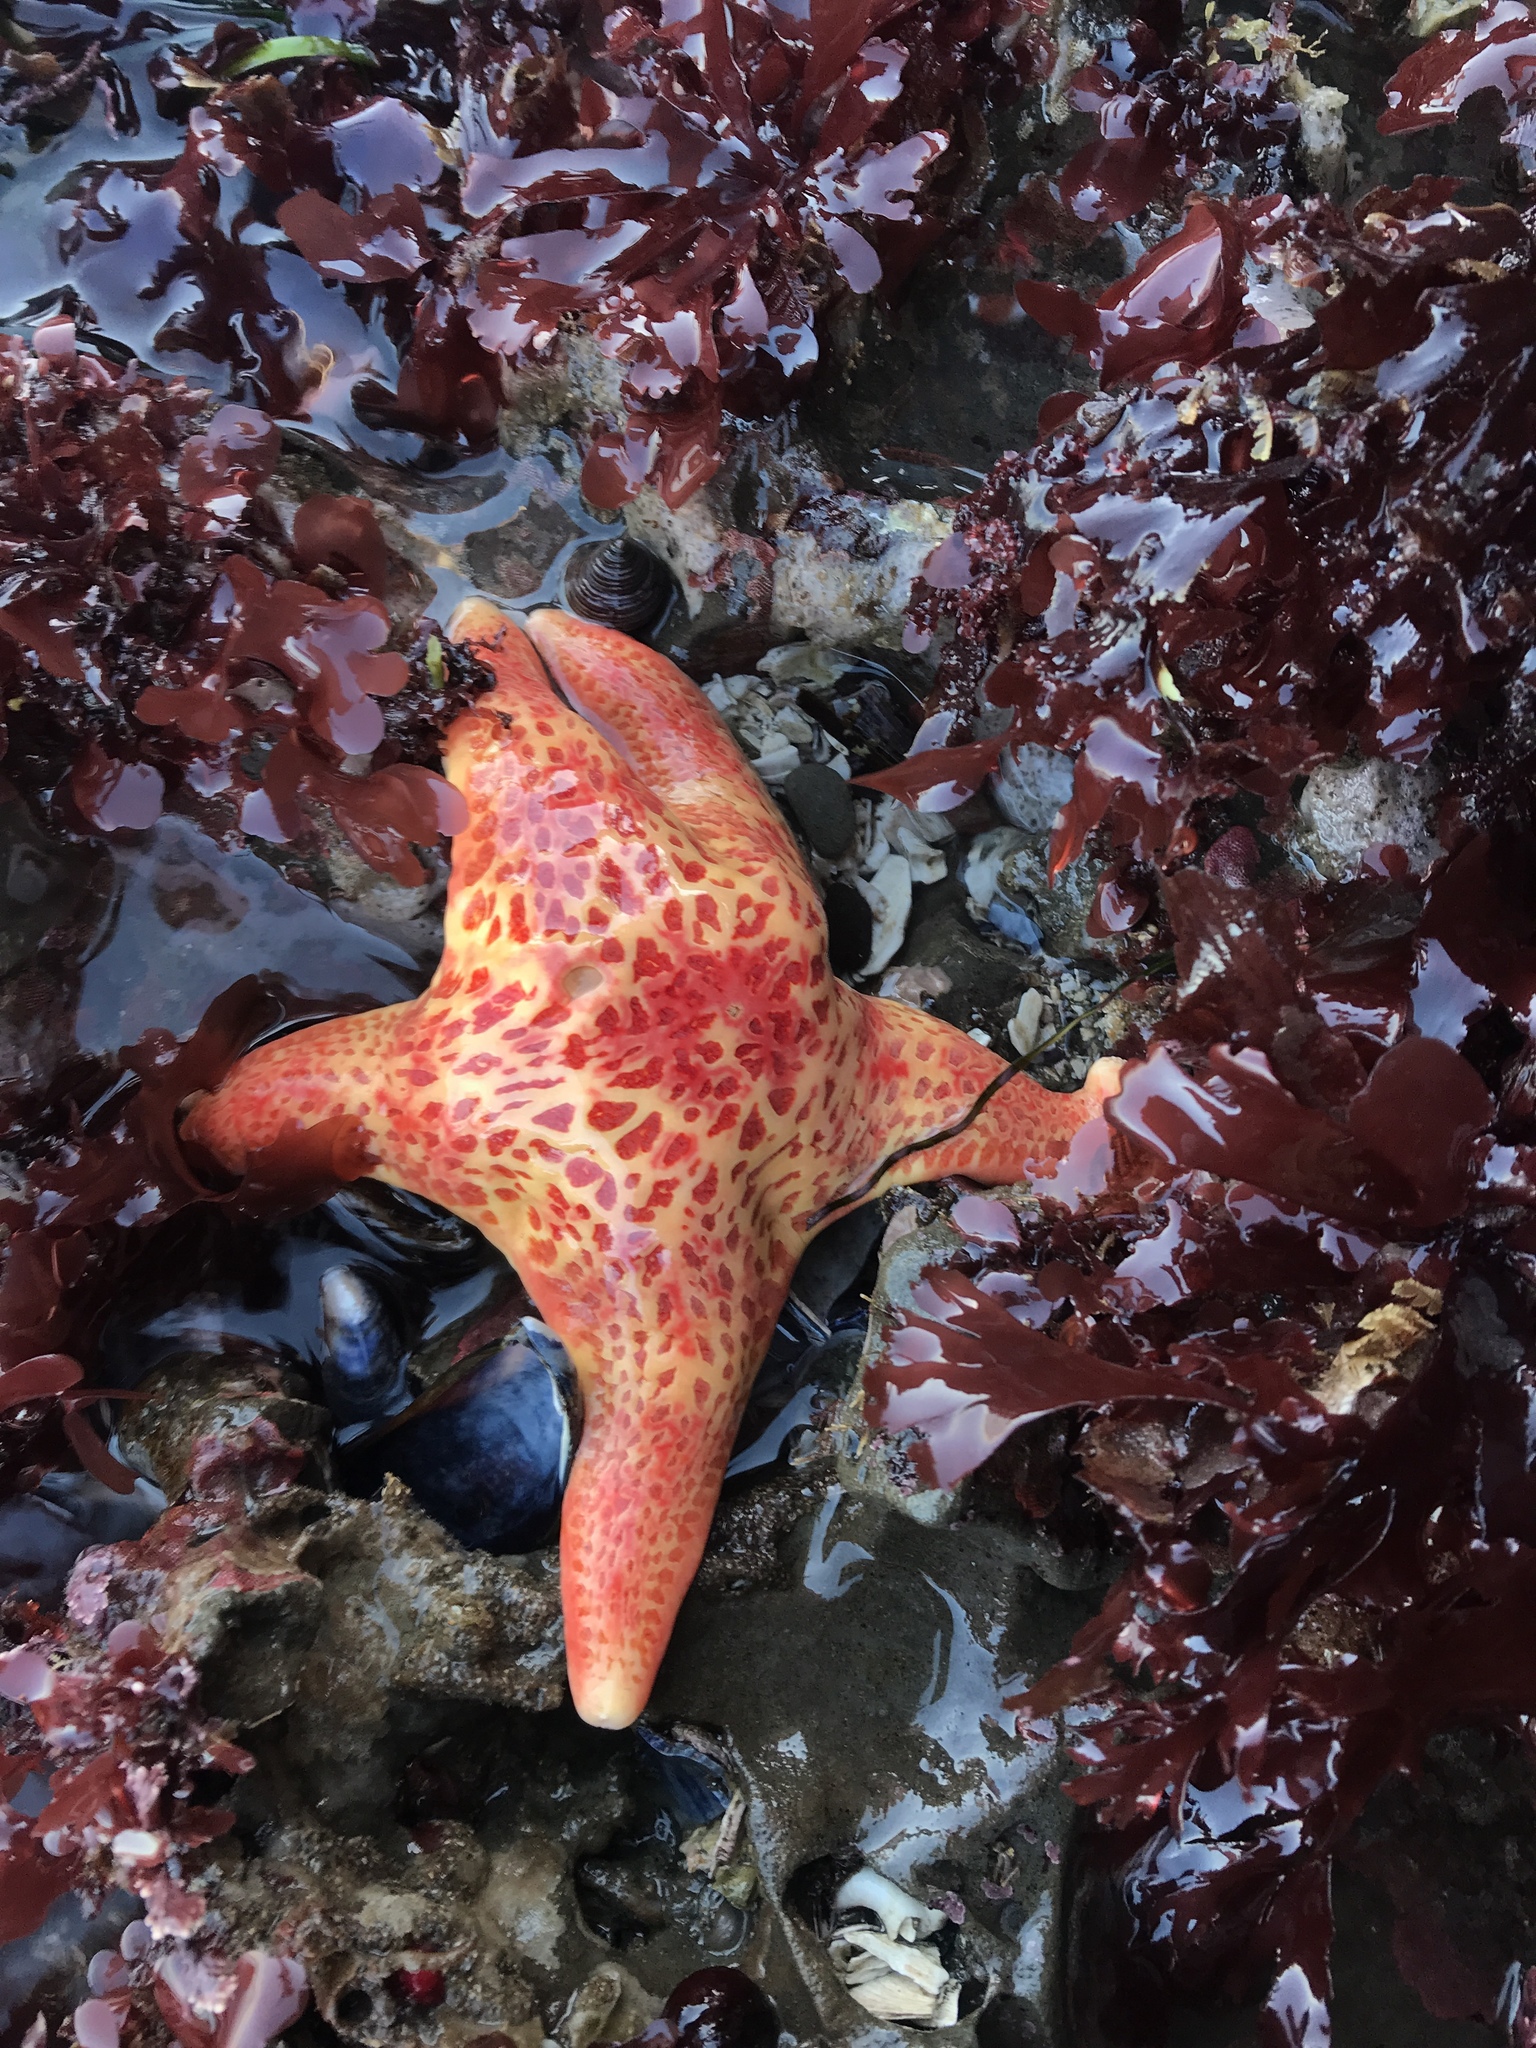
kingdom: Animalia
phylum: Echinodermata
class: Asteroidea
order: Valvatida
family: Asteropseidae
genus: Dermasterias
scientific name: Dermasterias imbricata
